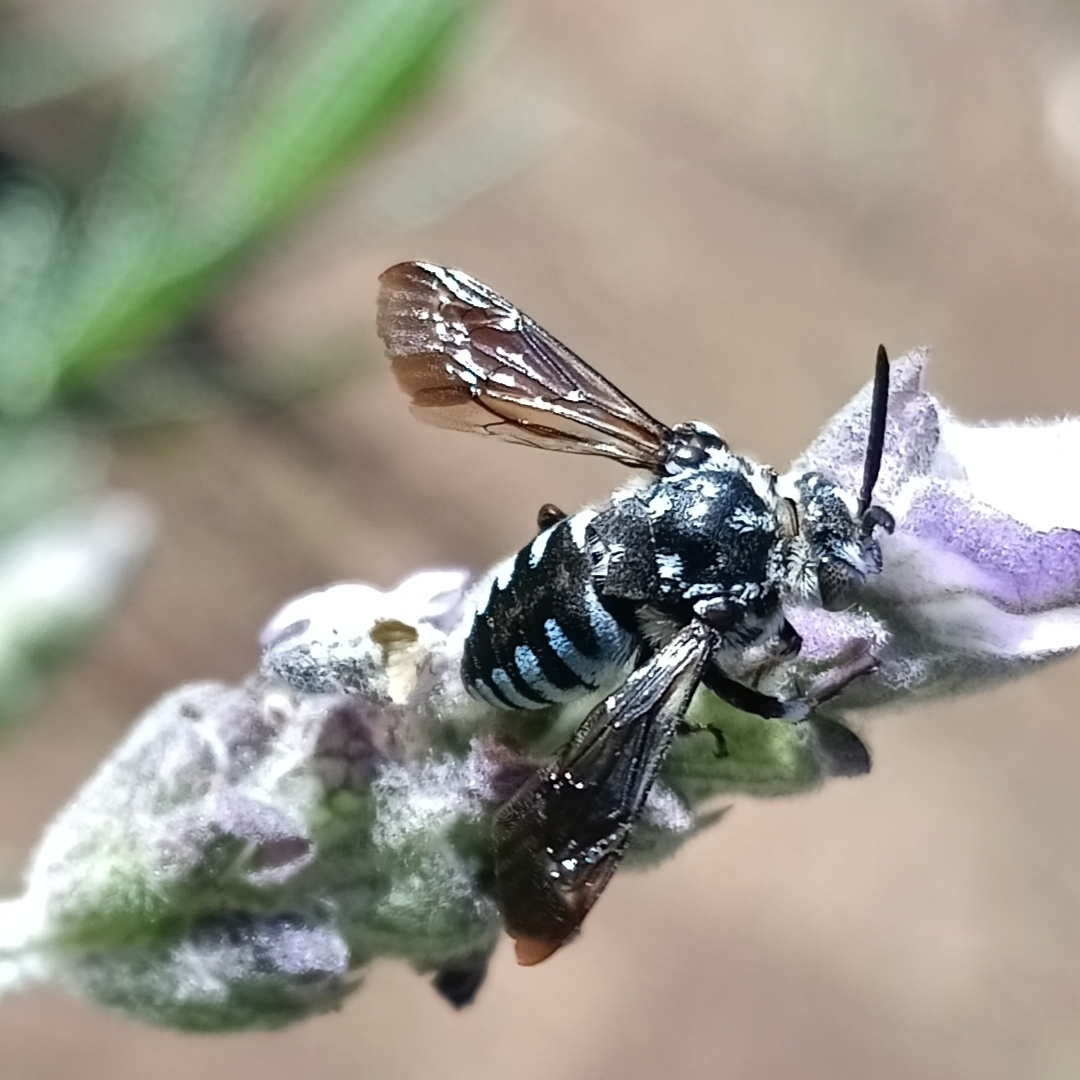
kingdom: Animalia
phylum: Arthropoda
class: Insecta
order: Hymenoptera
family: Apidae
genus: Thyreus
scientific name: Thyreus calceatus
